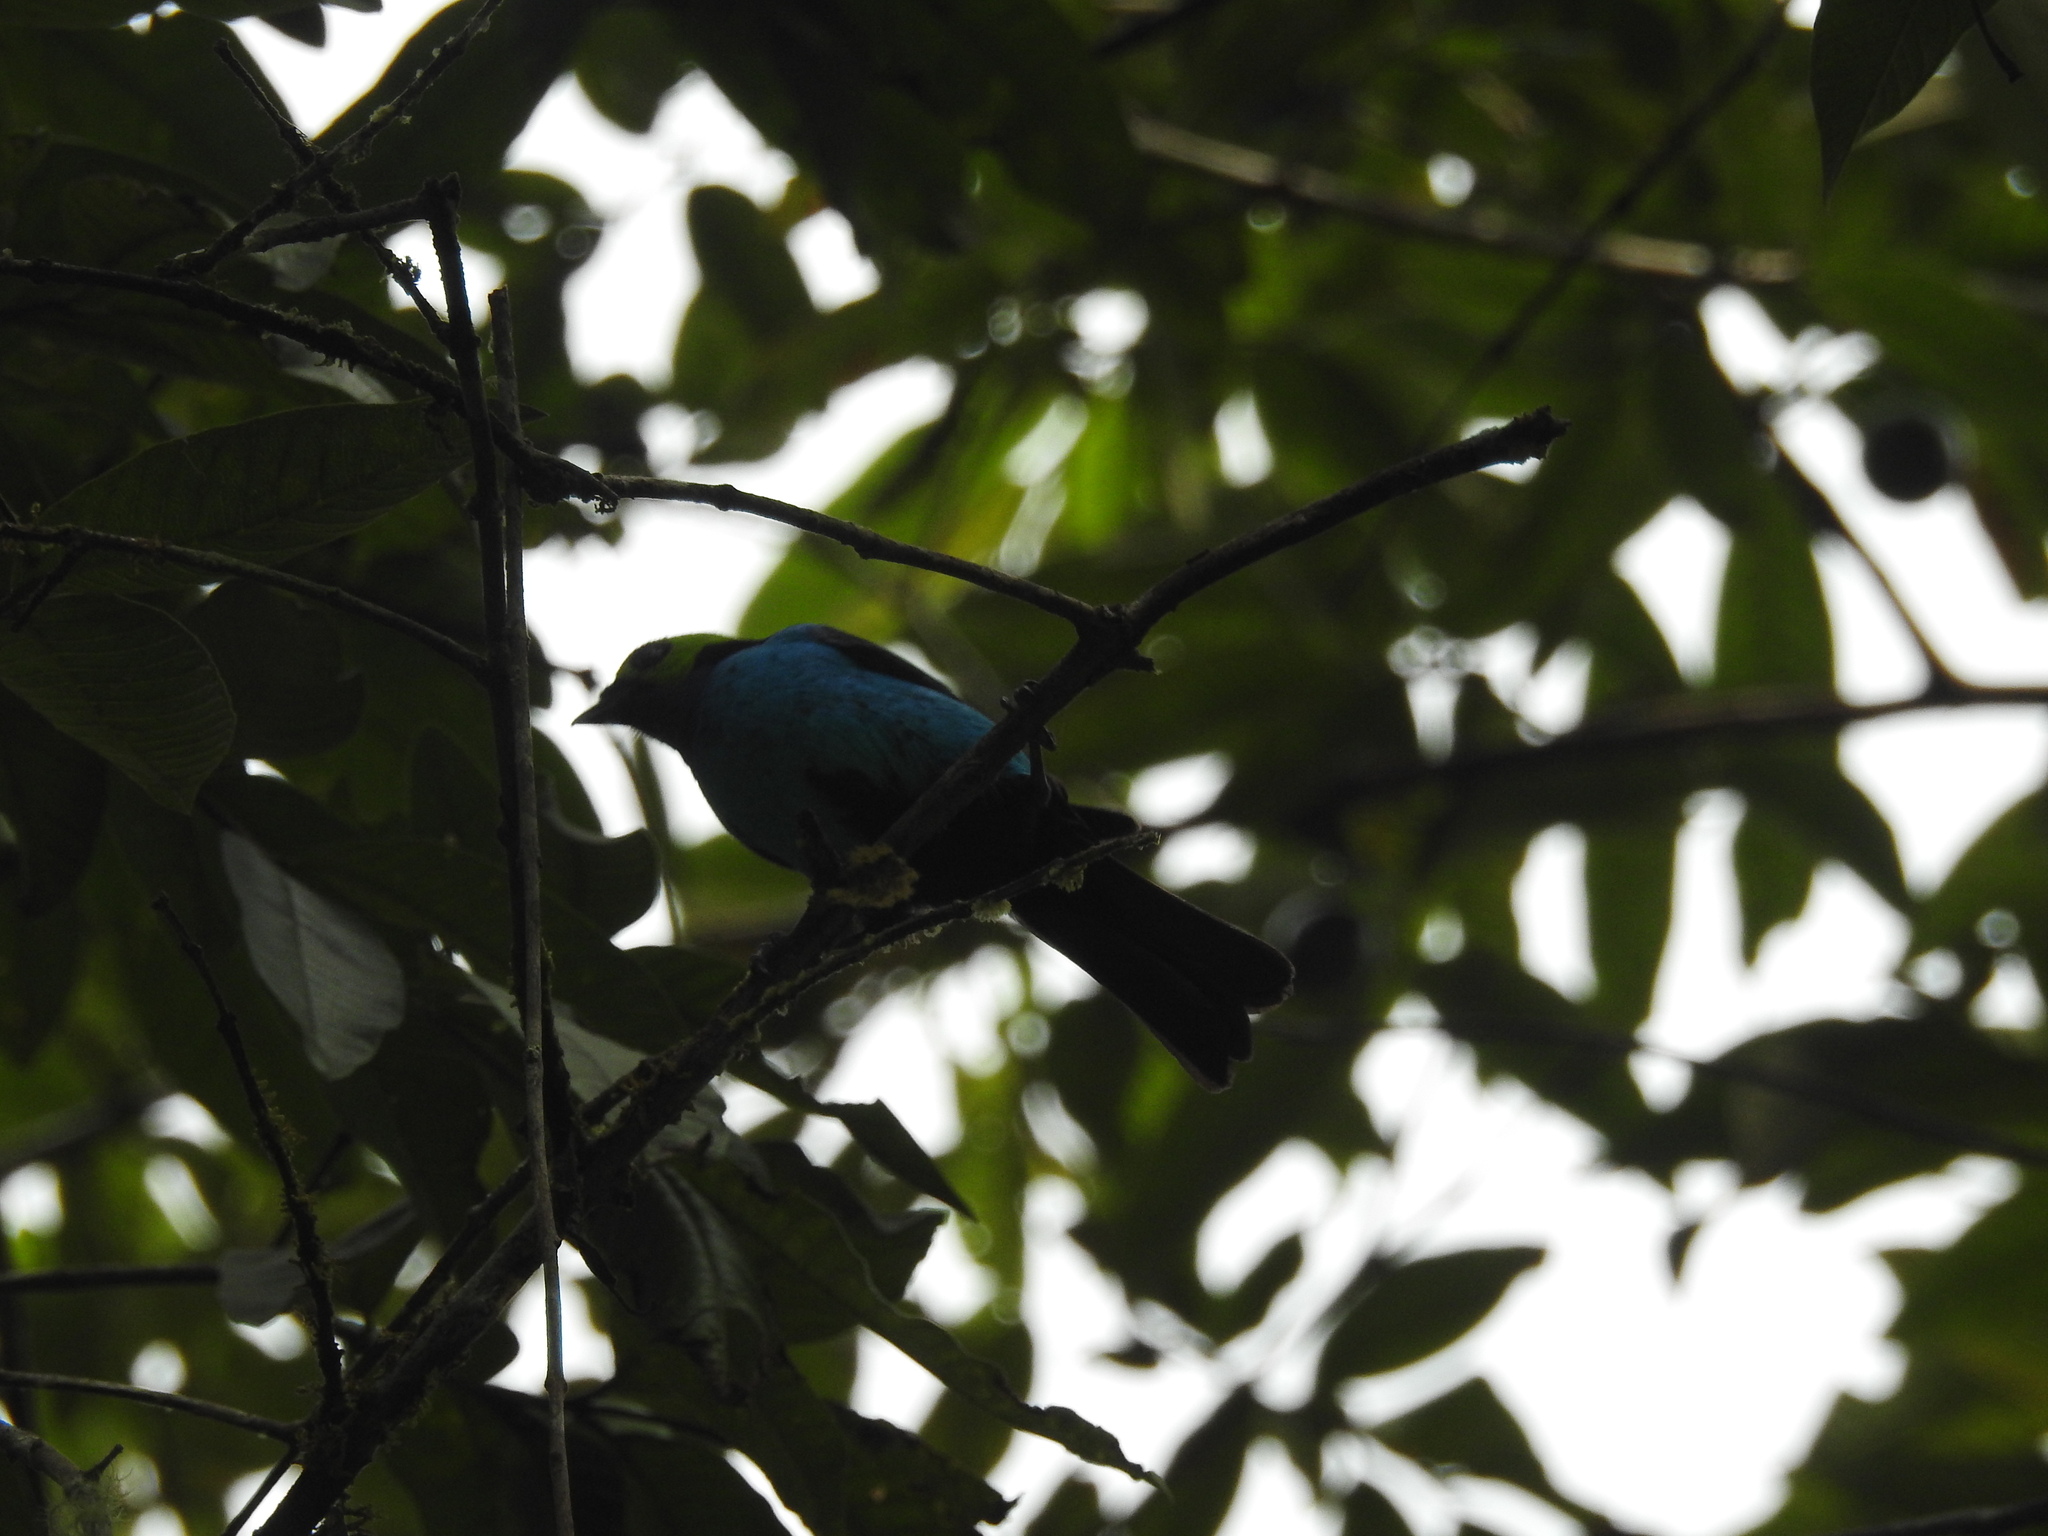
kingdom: Animalia
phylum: Chordata
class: Aves
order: Passeriformes
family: Thraupidae
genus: Tangara
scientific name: Tangara chilensis
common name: Paradise tanager
